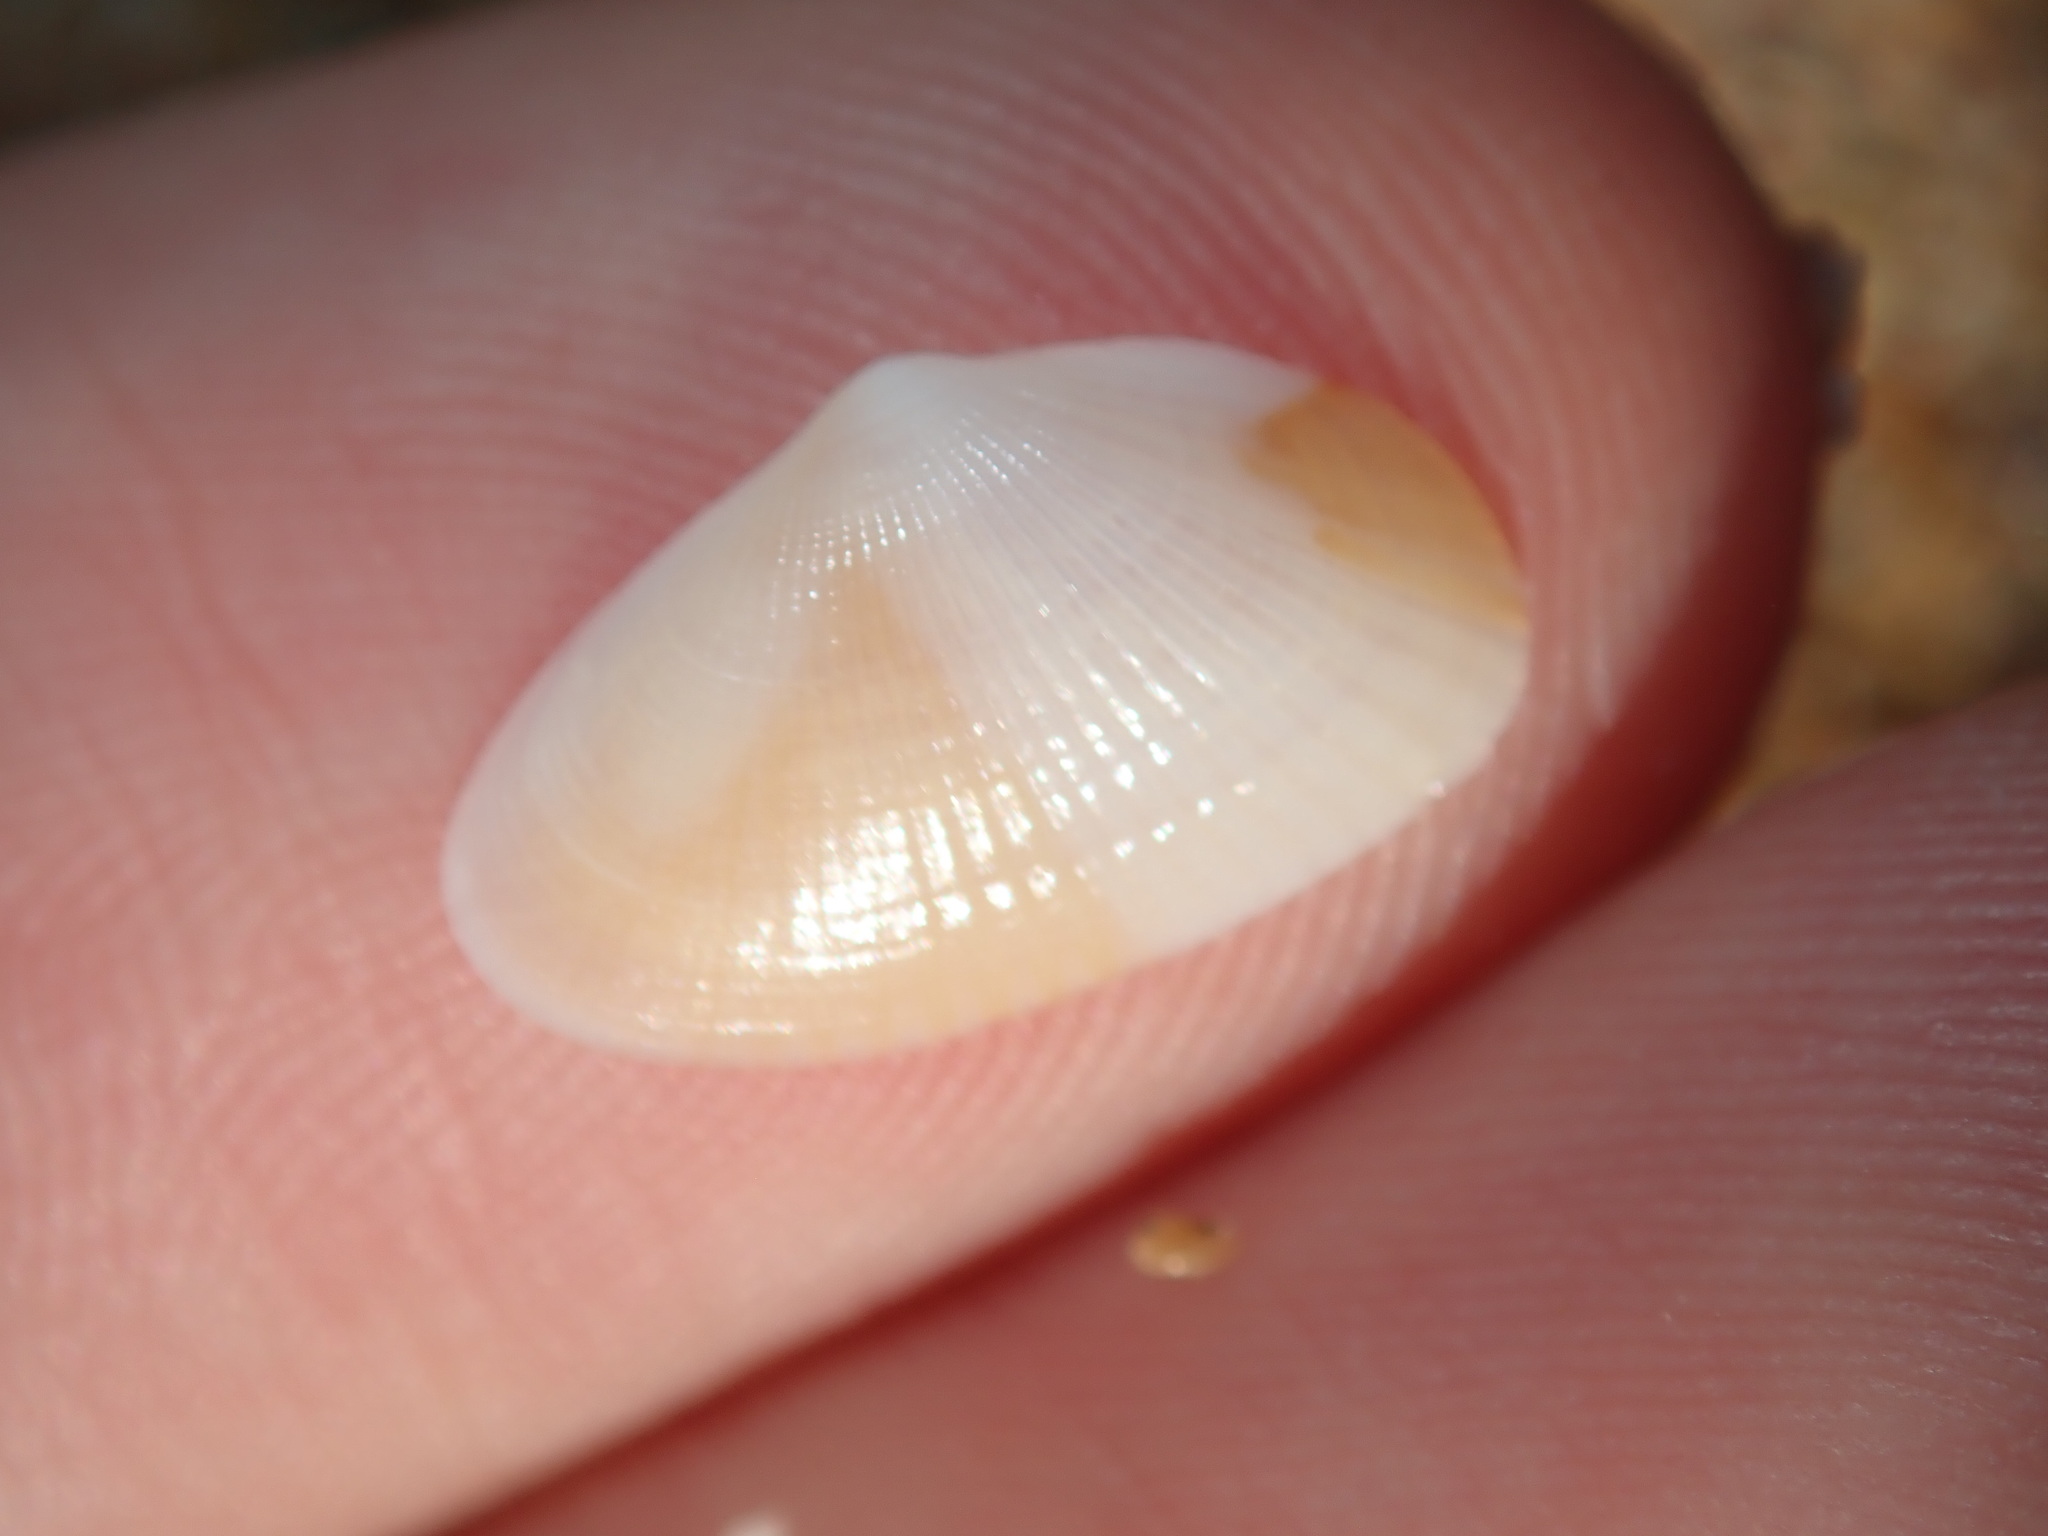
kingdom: Animalia
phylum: Mollusca
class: Bivalvia
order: Venerida
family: Hemidonacidae
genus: Hemidonax
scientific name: Hemidonax dactylus
